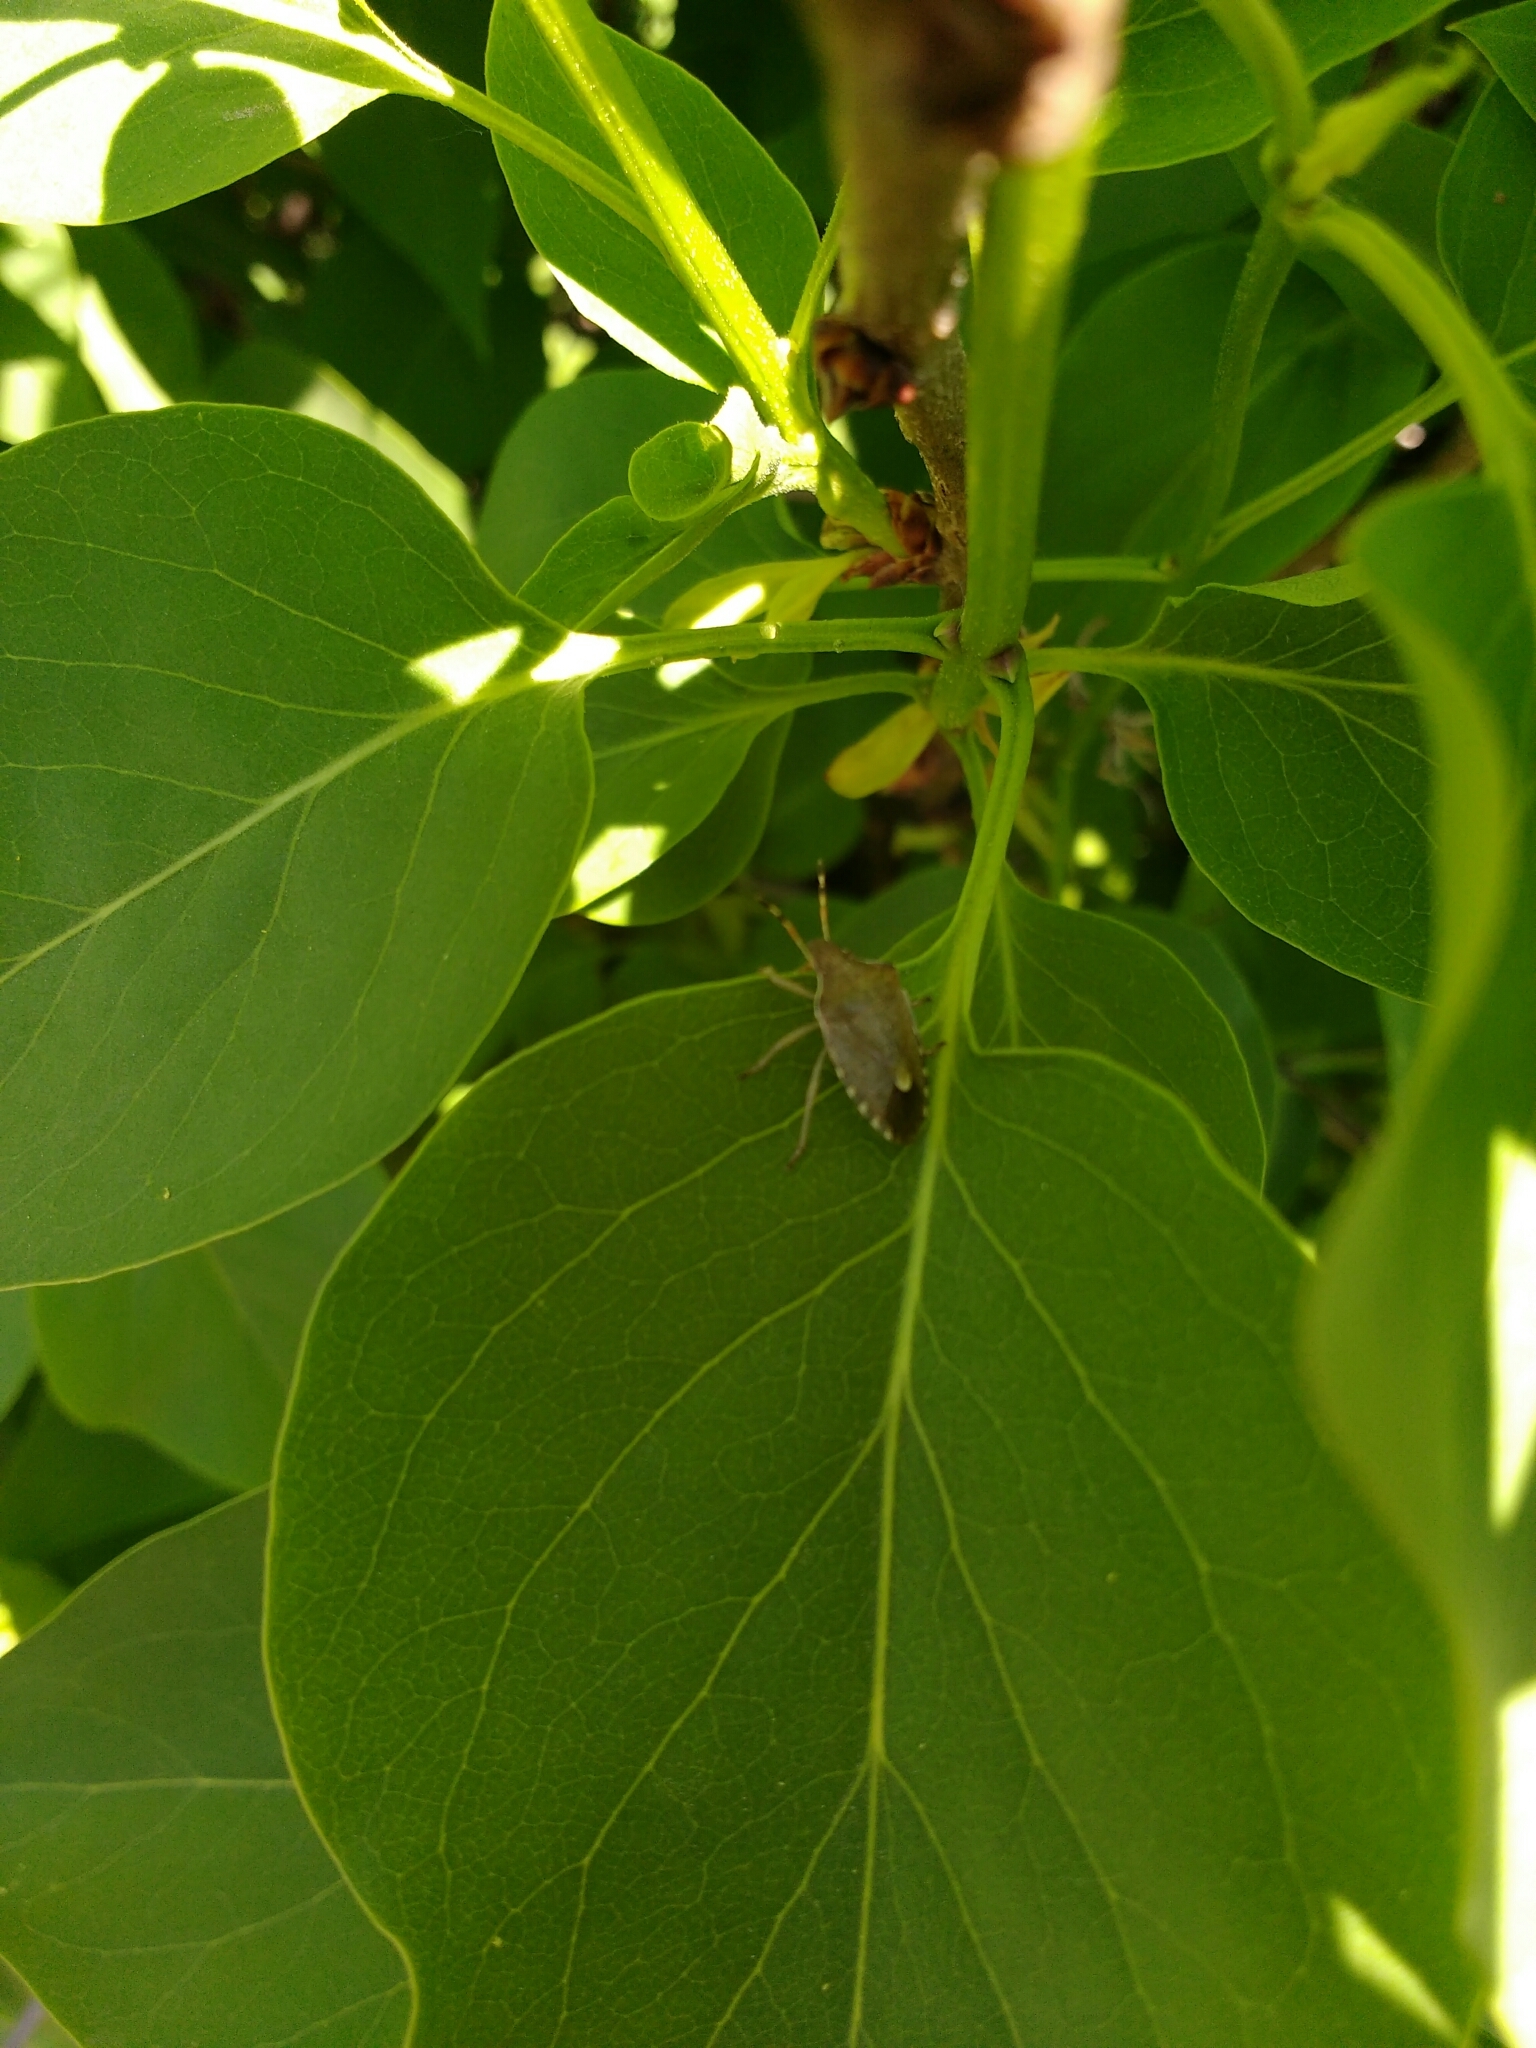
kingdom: Animalia
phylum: Arthropoda
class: Insecta
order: Hemiptera
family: Pentatomidae
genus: Holcostethus
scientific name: Holcostethus strictus
